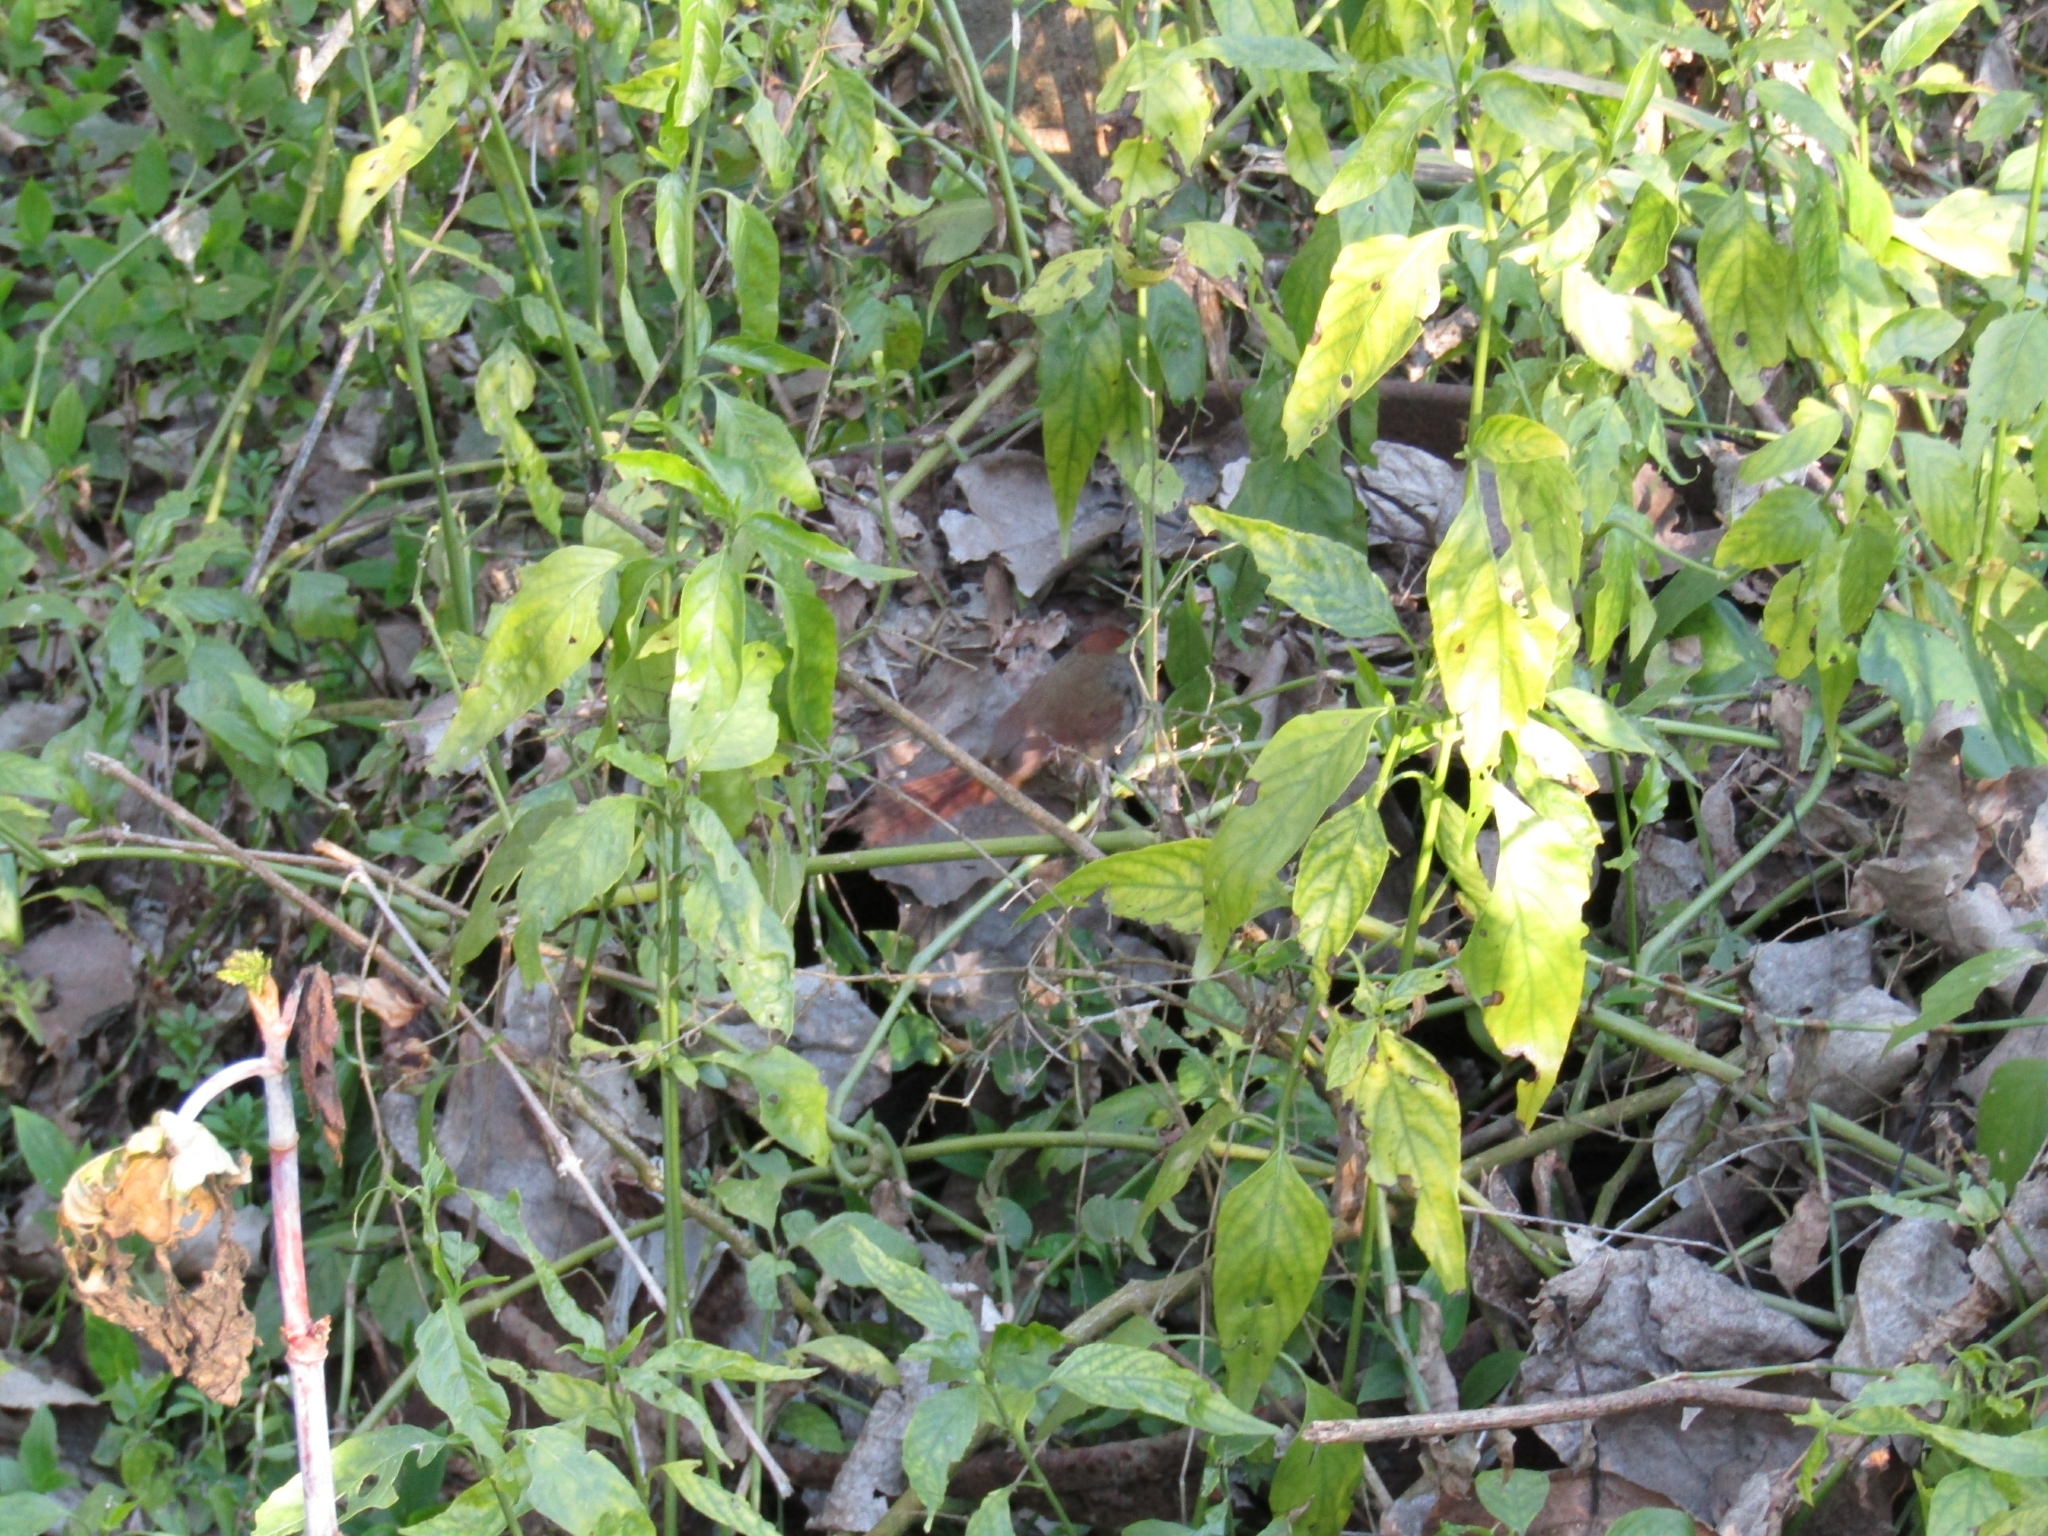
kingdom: Animalia
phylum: Chordata
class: Aves
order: Passeriformes
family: Furnariidae
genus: Synallaxis
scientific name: Synallaxis frontalis
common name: Sooty-fronted spinetail
